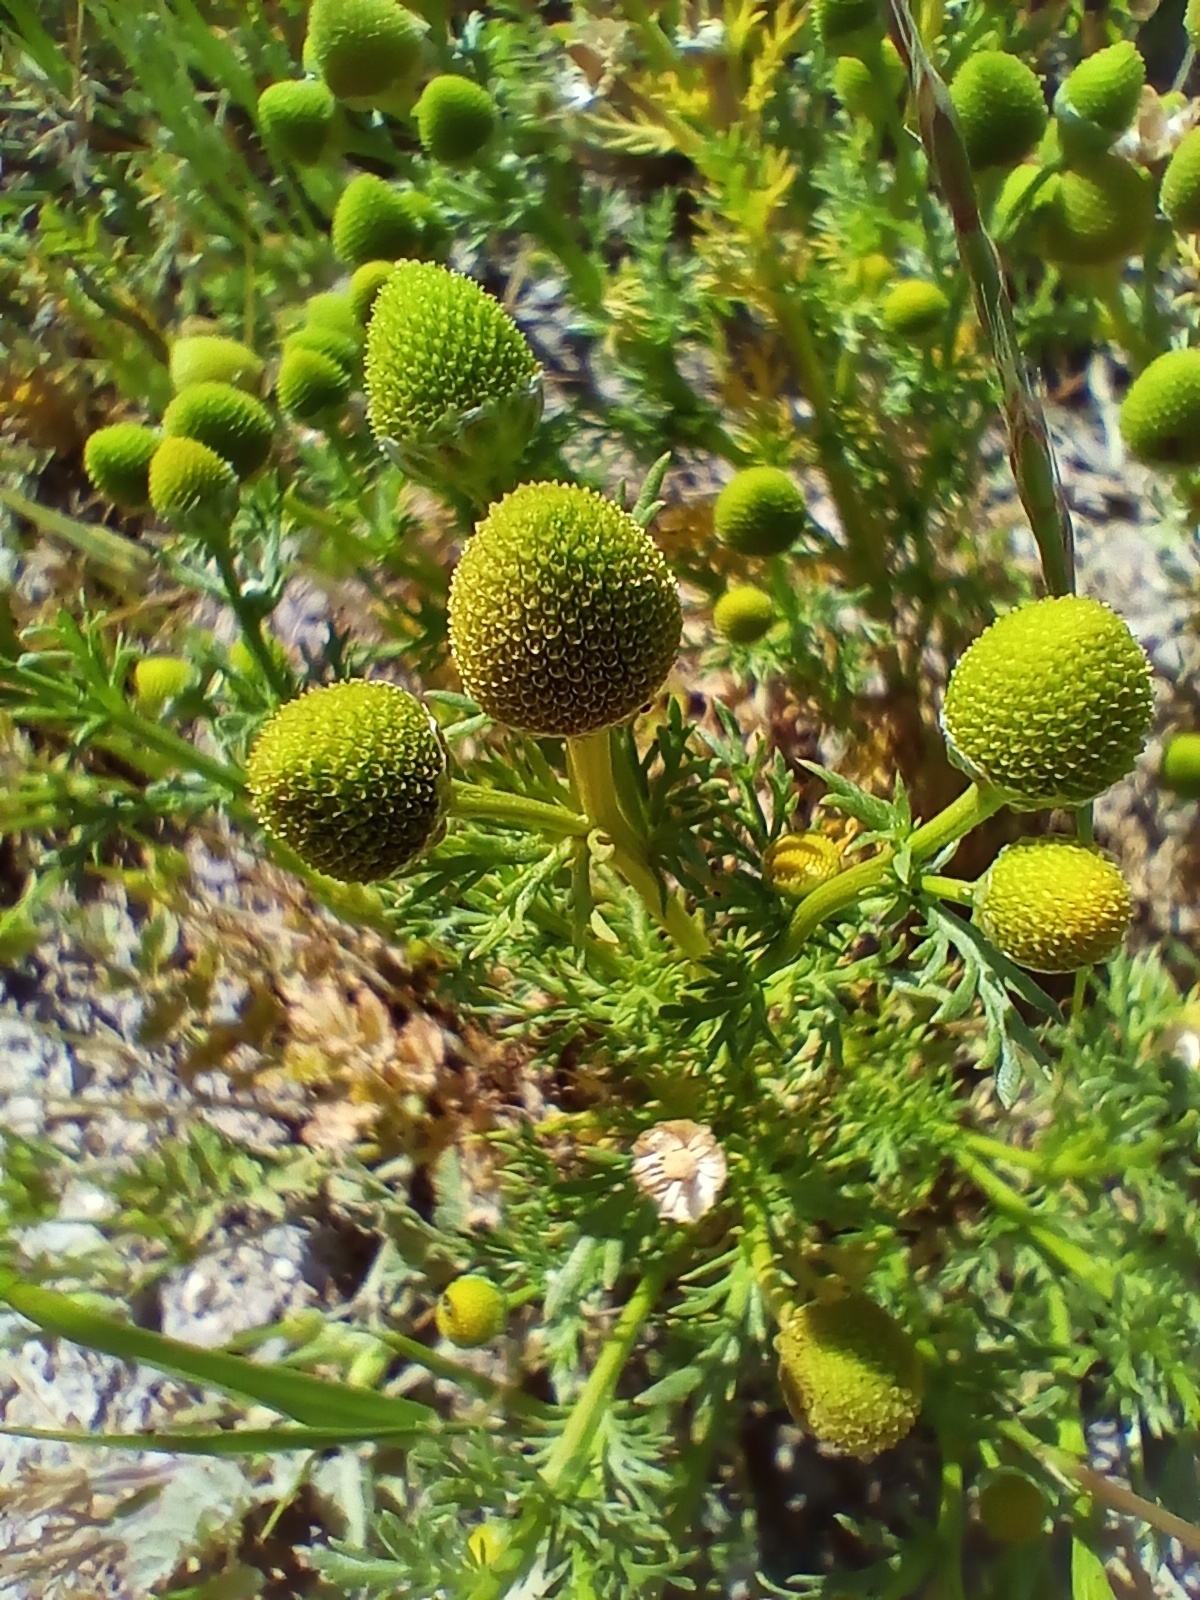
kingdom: Plantae
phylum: Tracheophyta
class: Magnoliopsida
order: Asterales
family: Asteraceae
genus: Matricaria
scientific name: Matricaria discoidea
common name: Disc mayweed
